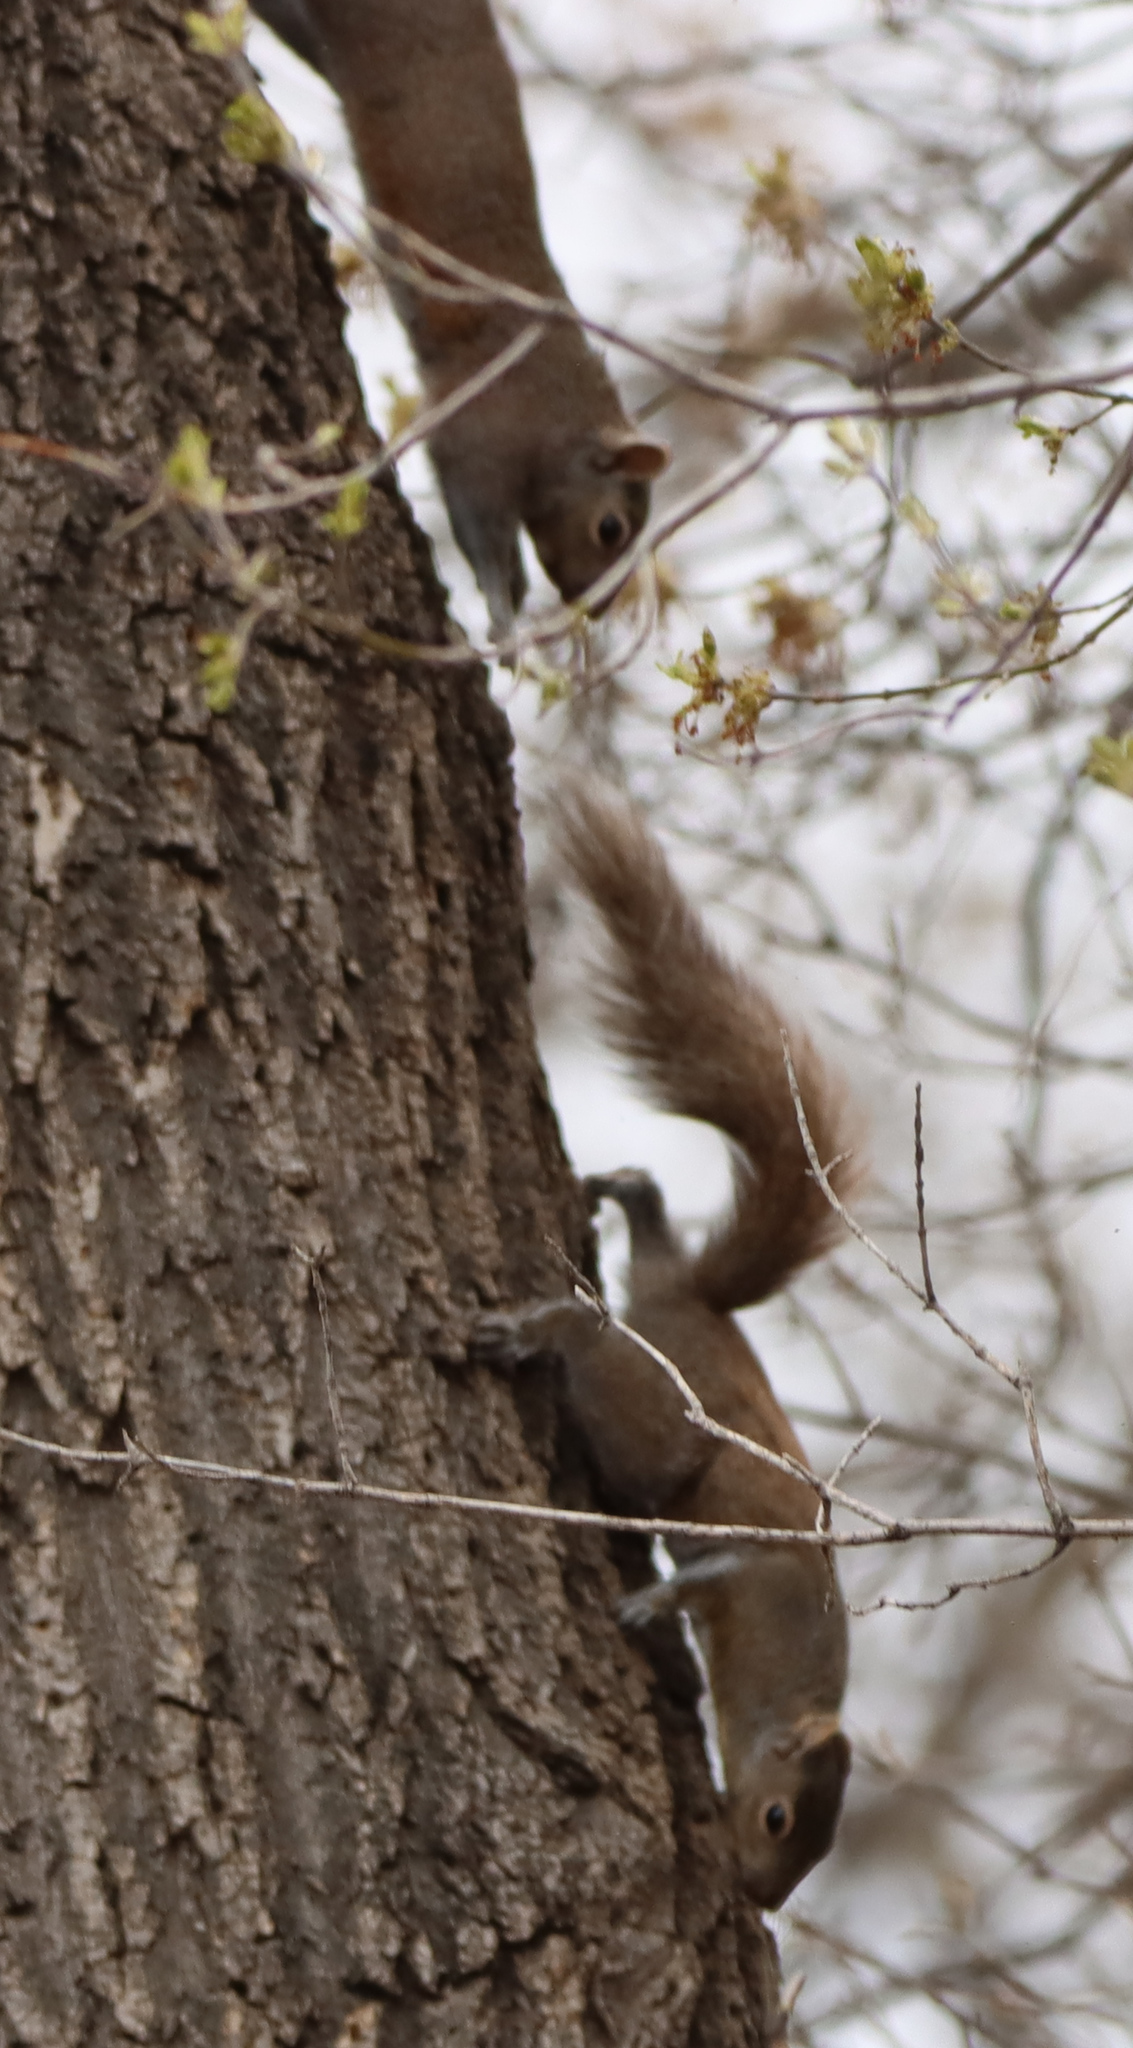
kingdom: Animalia
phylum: Chordata
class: Mammalia
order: Rodentia
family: Sciuridae
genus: Tamiasciurus
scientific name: Tamiasciurus hudsonicus
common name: Red squirrel
